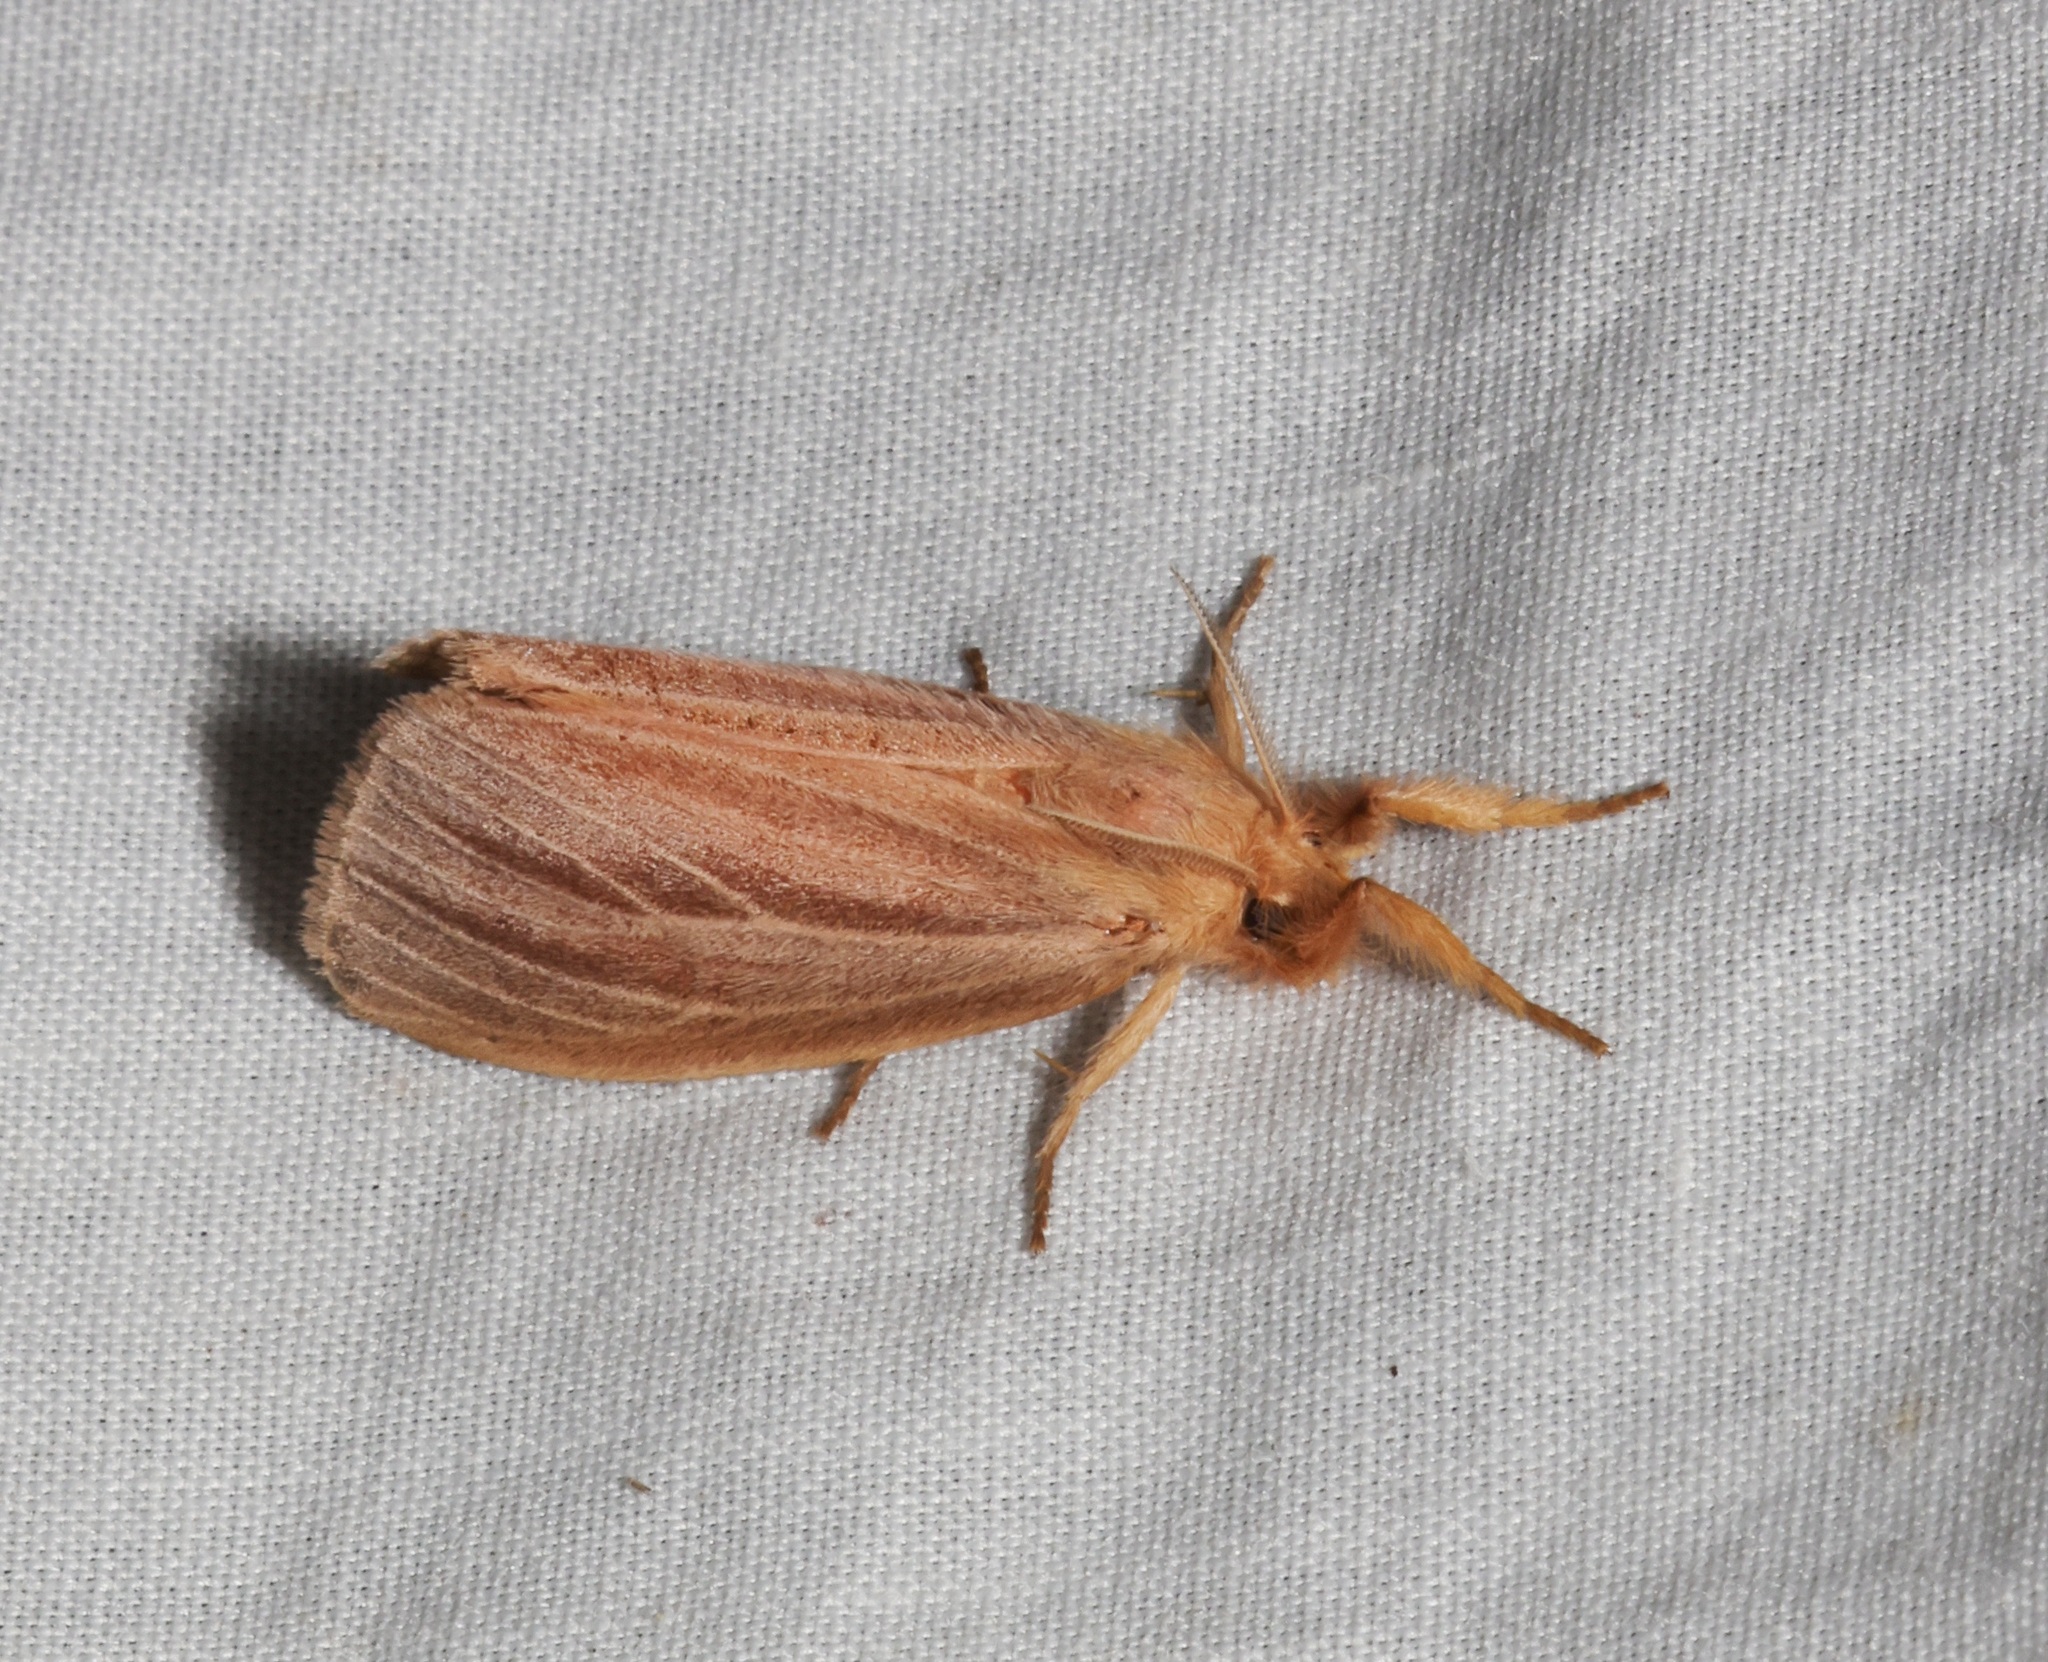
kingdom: Animalia
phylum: Arthropoda
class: Insecta
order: Lepidoptera
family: Erebidae
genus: Pantana
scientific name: Pantana
